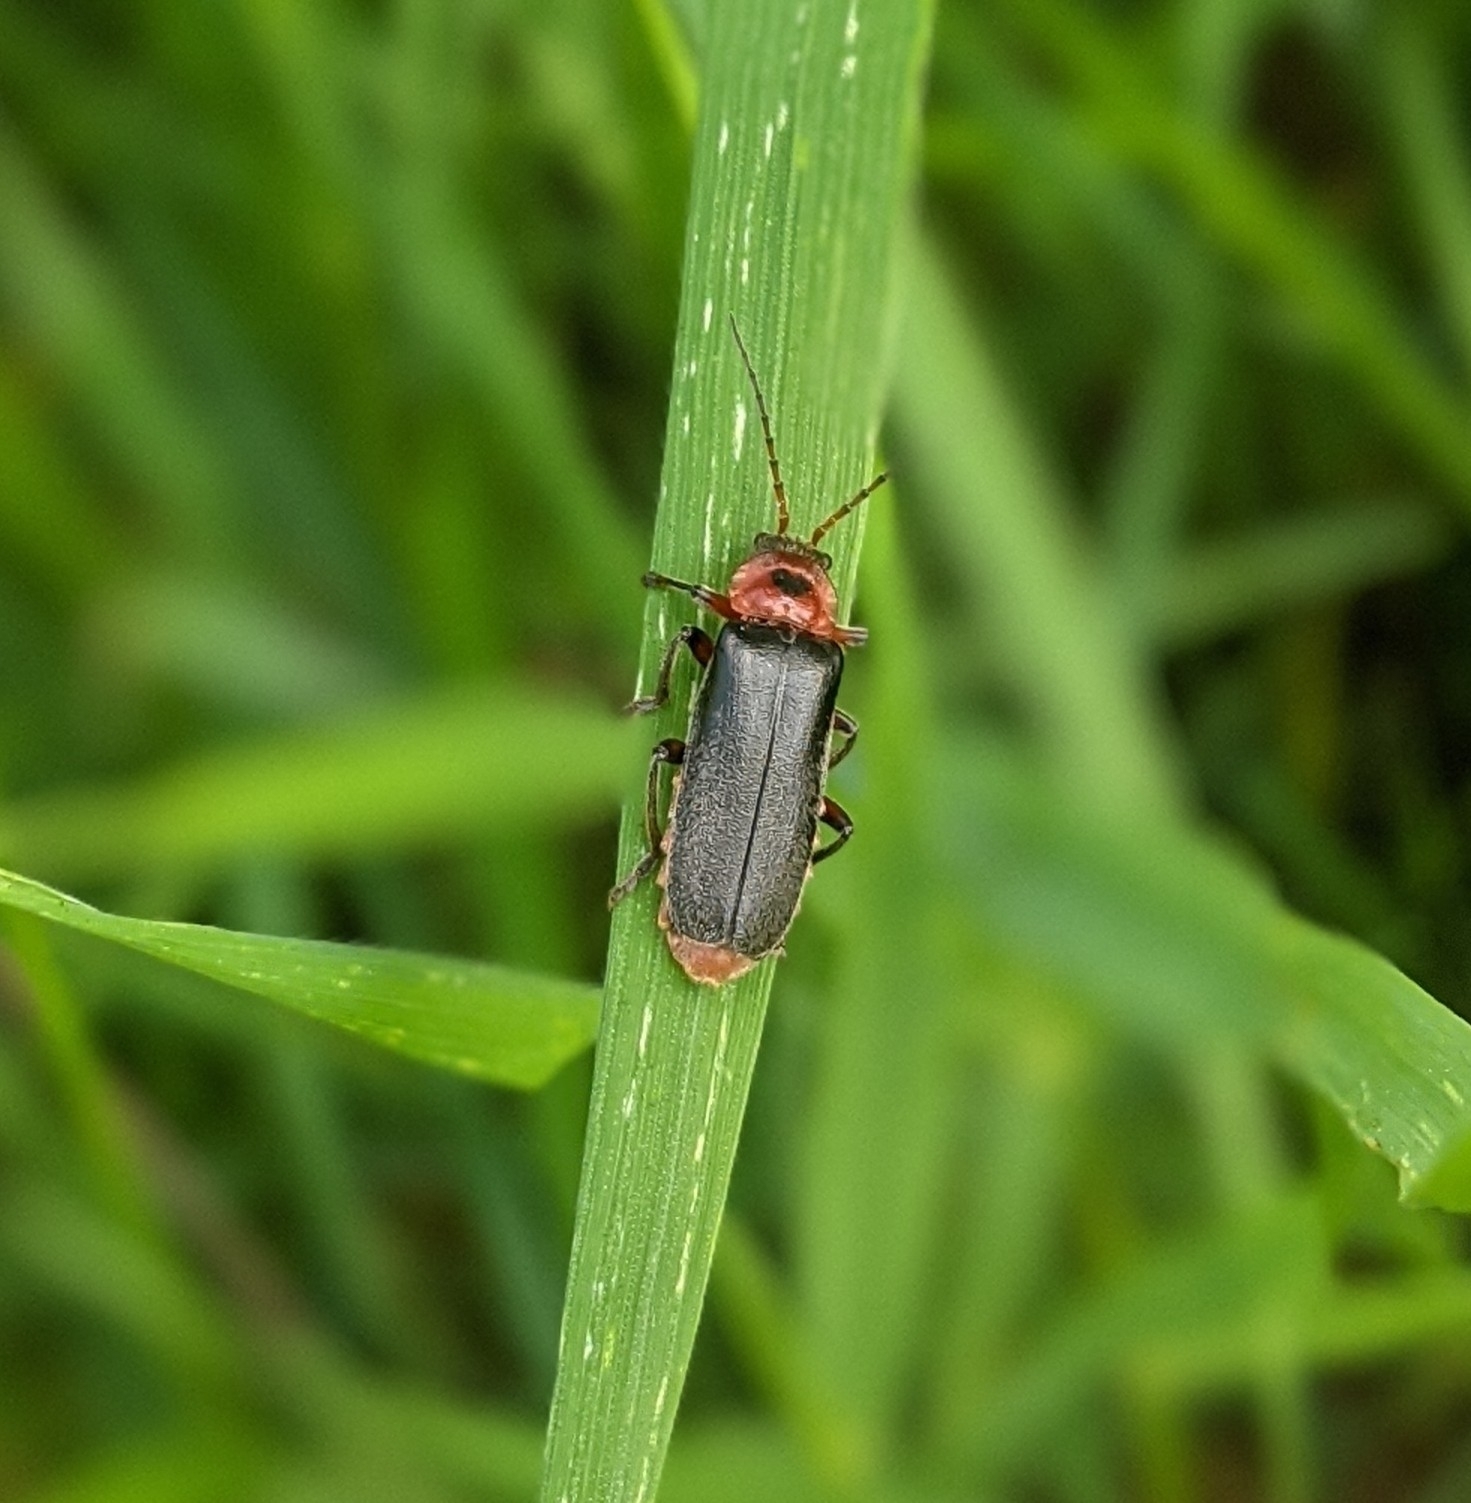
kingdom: Animalia
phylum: Arthropoda
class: Insecta
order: Coleoptera
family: Cantharidae
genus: Cantharis
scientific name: Cantharis rustica
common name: Soldier beetle
